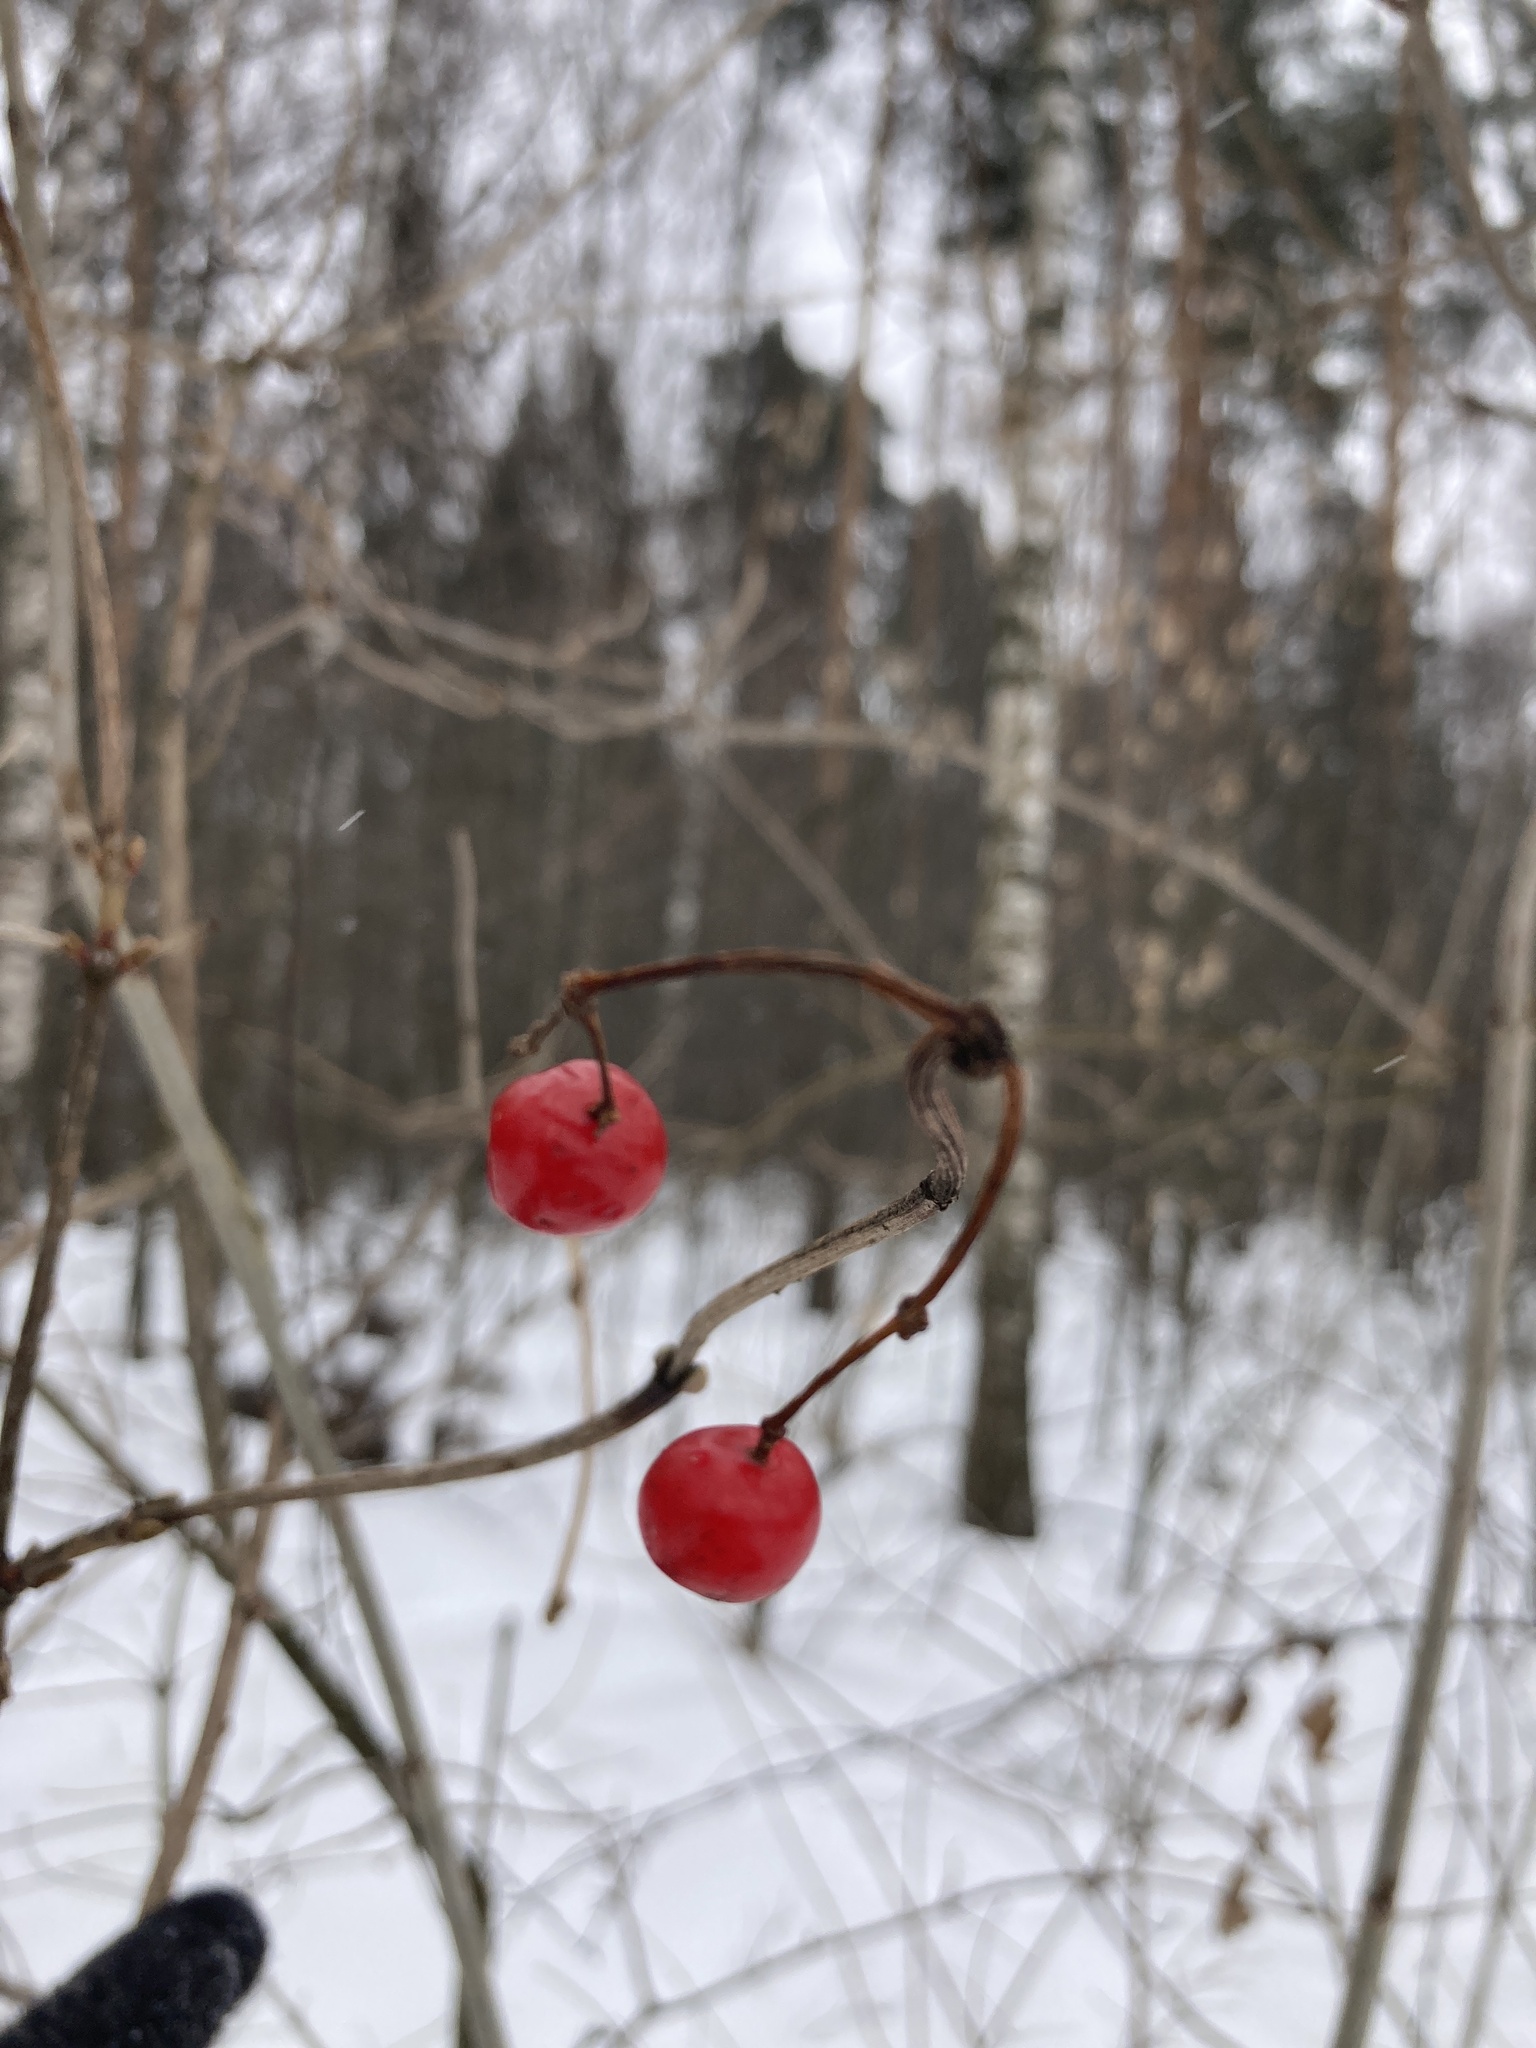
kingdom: Plantae
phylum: Tracheophyta
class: Magnoliopsida
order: Dipsacales
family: Viburnaceae
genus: Viburnum
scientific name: Viburnum opulus
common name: Guelder-rose
